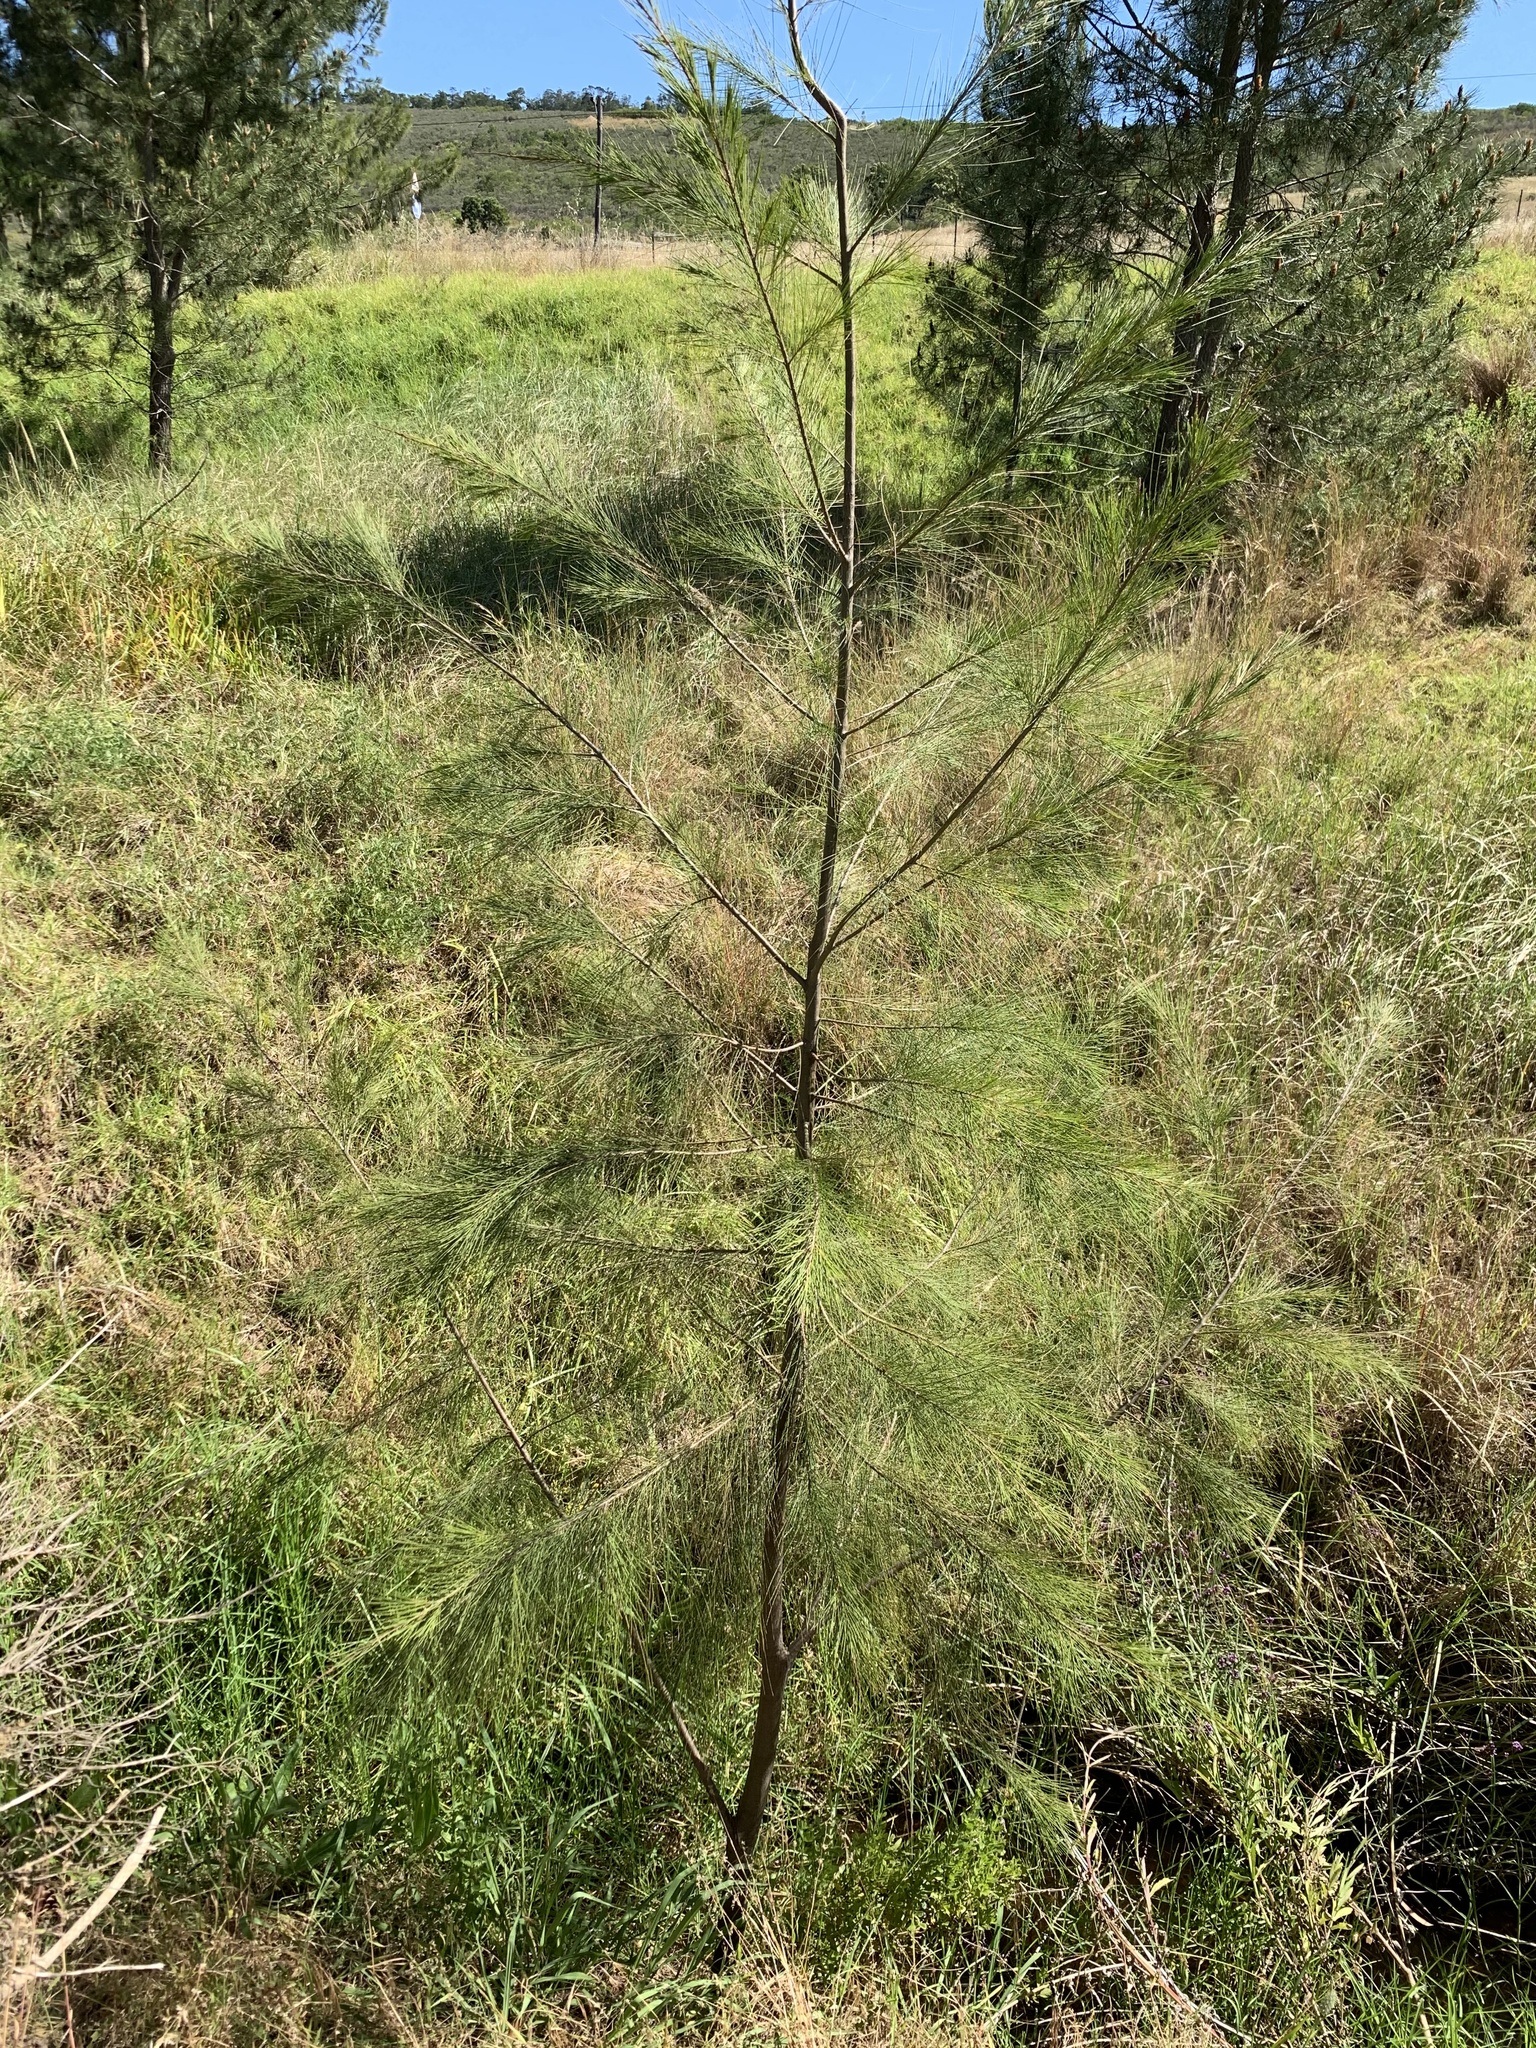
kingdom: Plantae
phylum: Tracheophyta
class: Magnoliopsida
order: Fagales
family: Casuarinaceae
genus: Casuarina
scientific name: Casuarina cunninghamiana
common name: River sheoak
